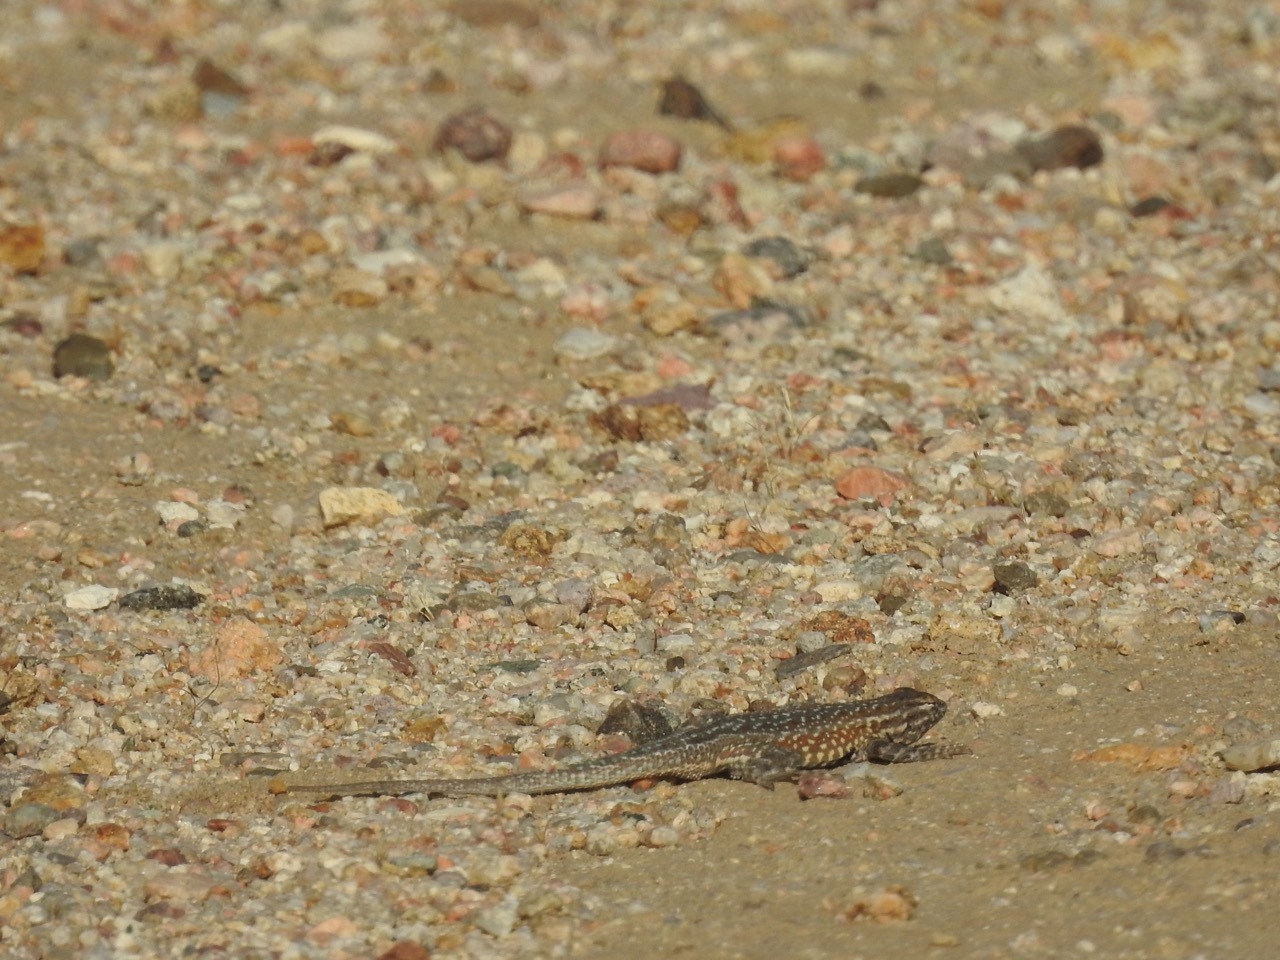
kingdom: Animalia
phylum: Chordata
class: Squamata
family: Phrynosomatidae
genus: Uta
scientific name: Uta stansburiana
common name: Side-blotched lizard
